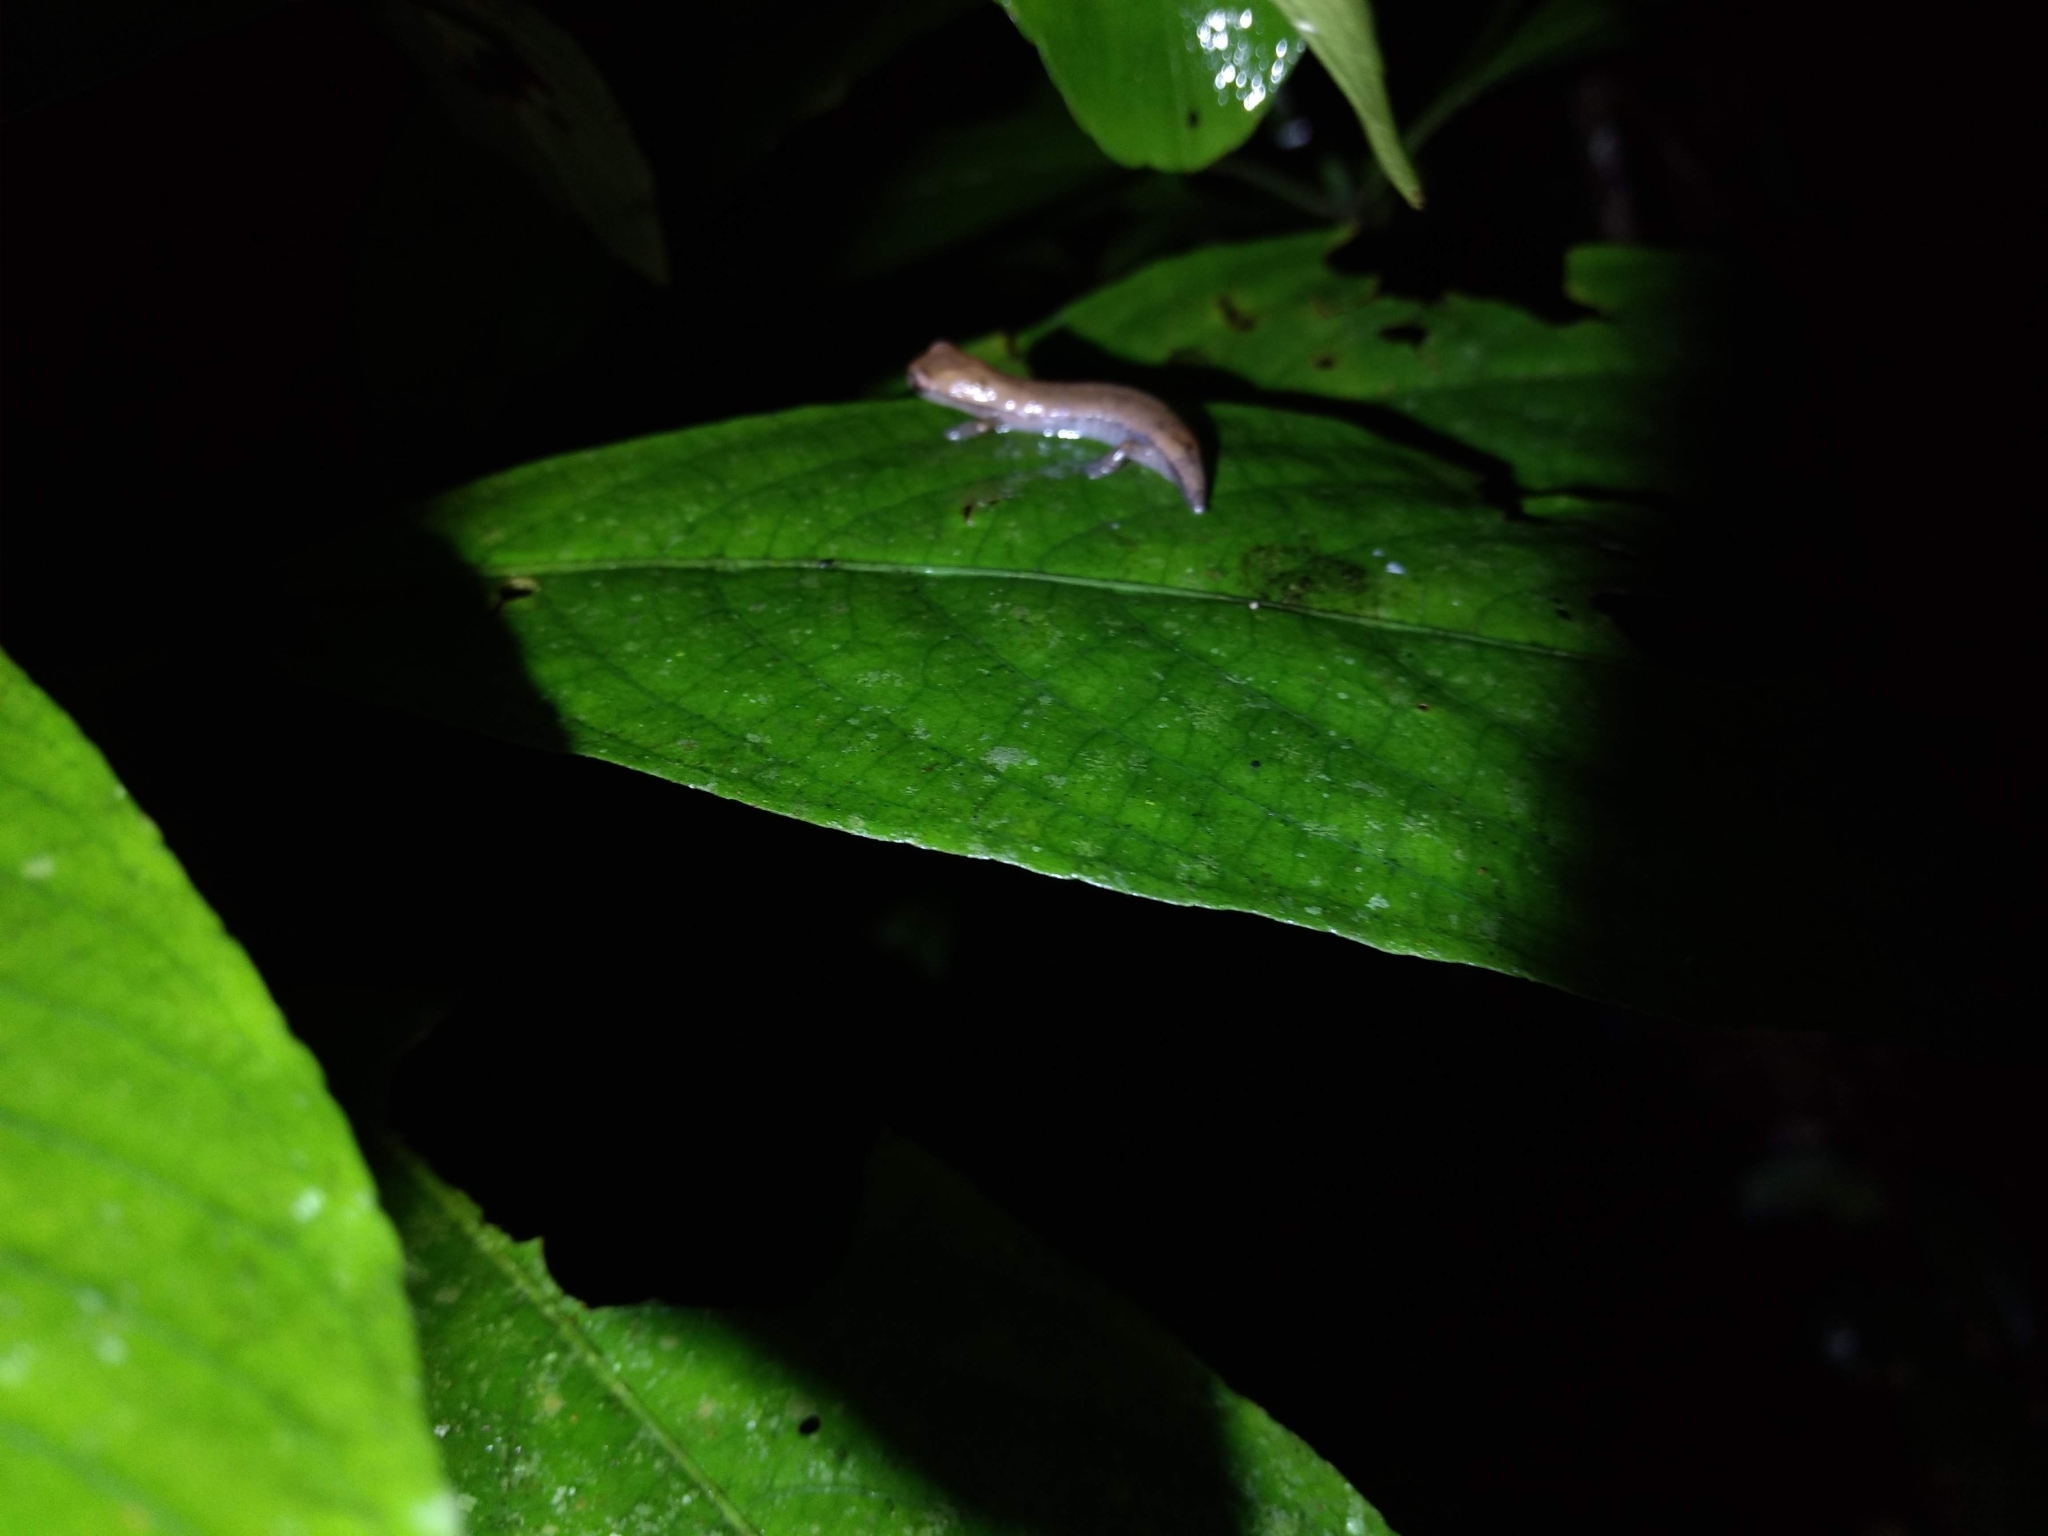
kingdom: Animalia
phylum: Chordata
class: Amphibia
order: Caudata
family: Plethodontidae
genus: Bolitoglossa
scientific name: Bolitoglossa rufescens
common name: Common dwarf salamander
